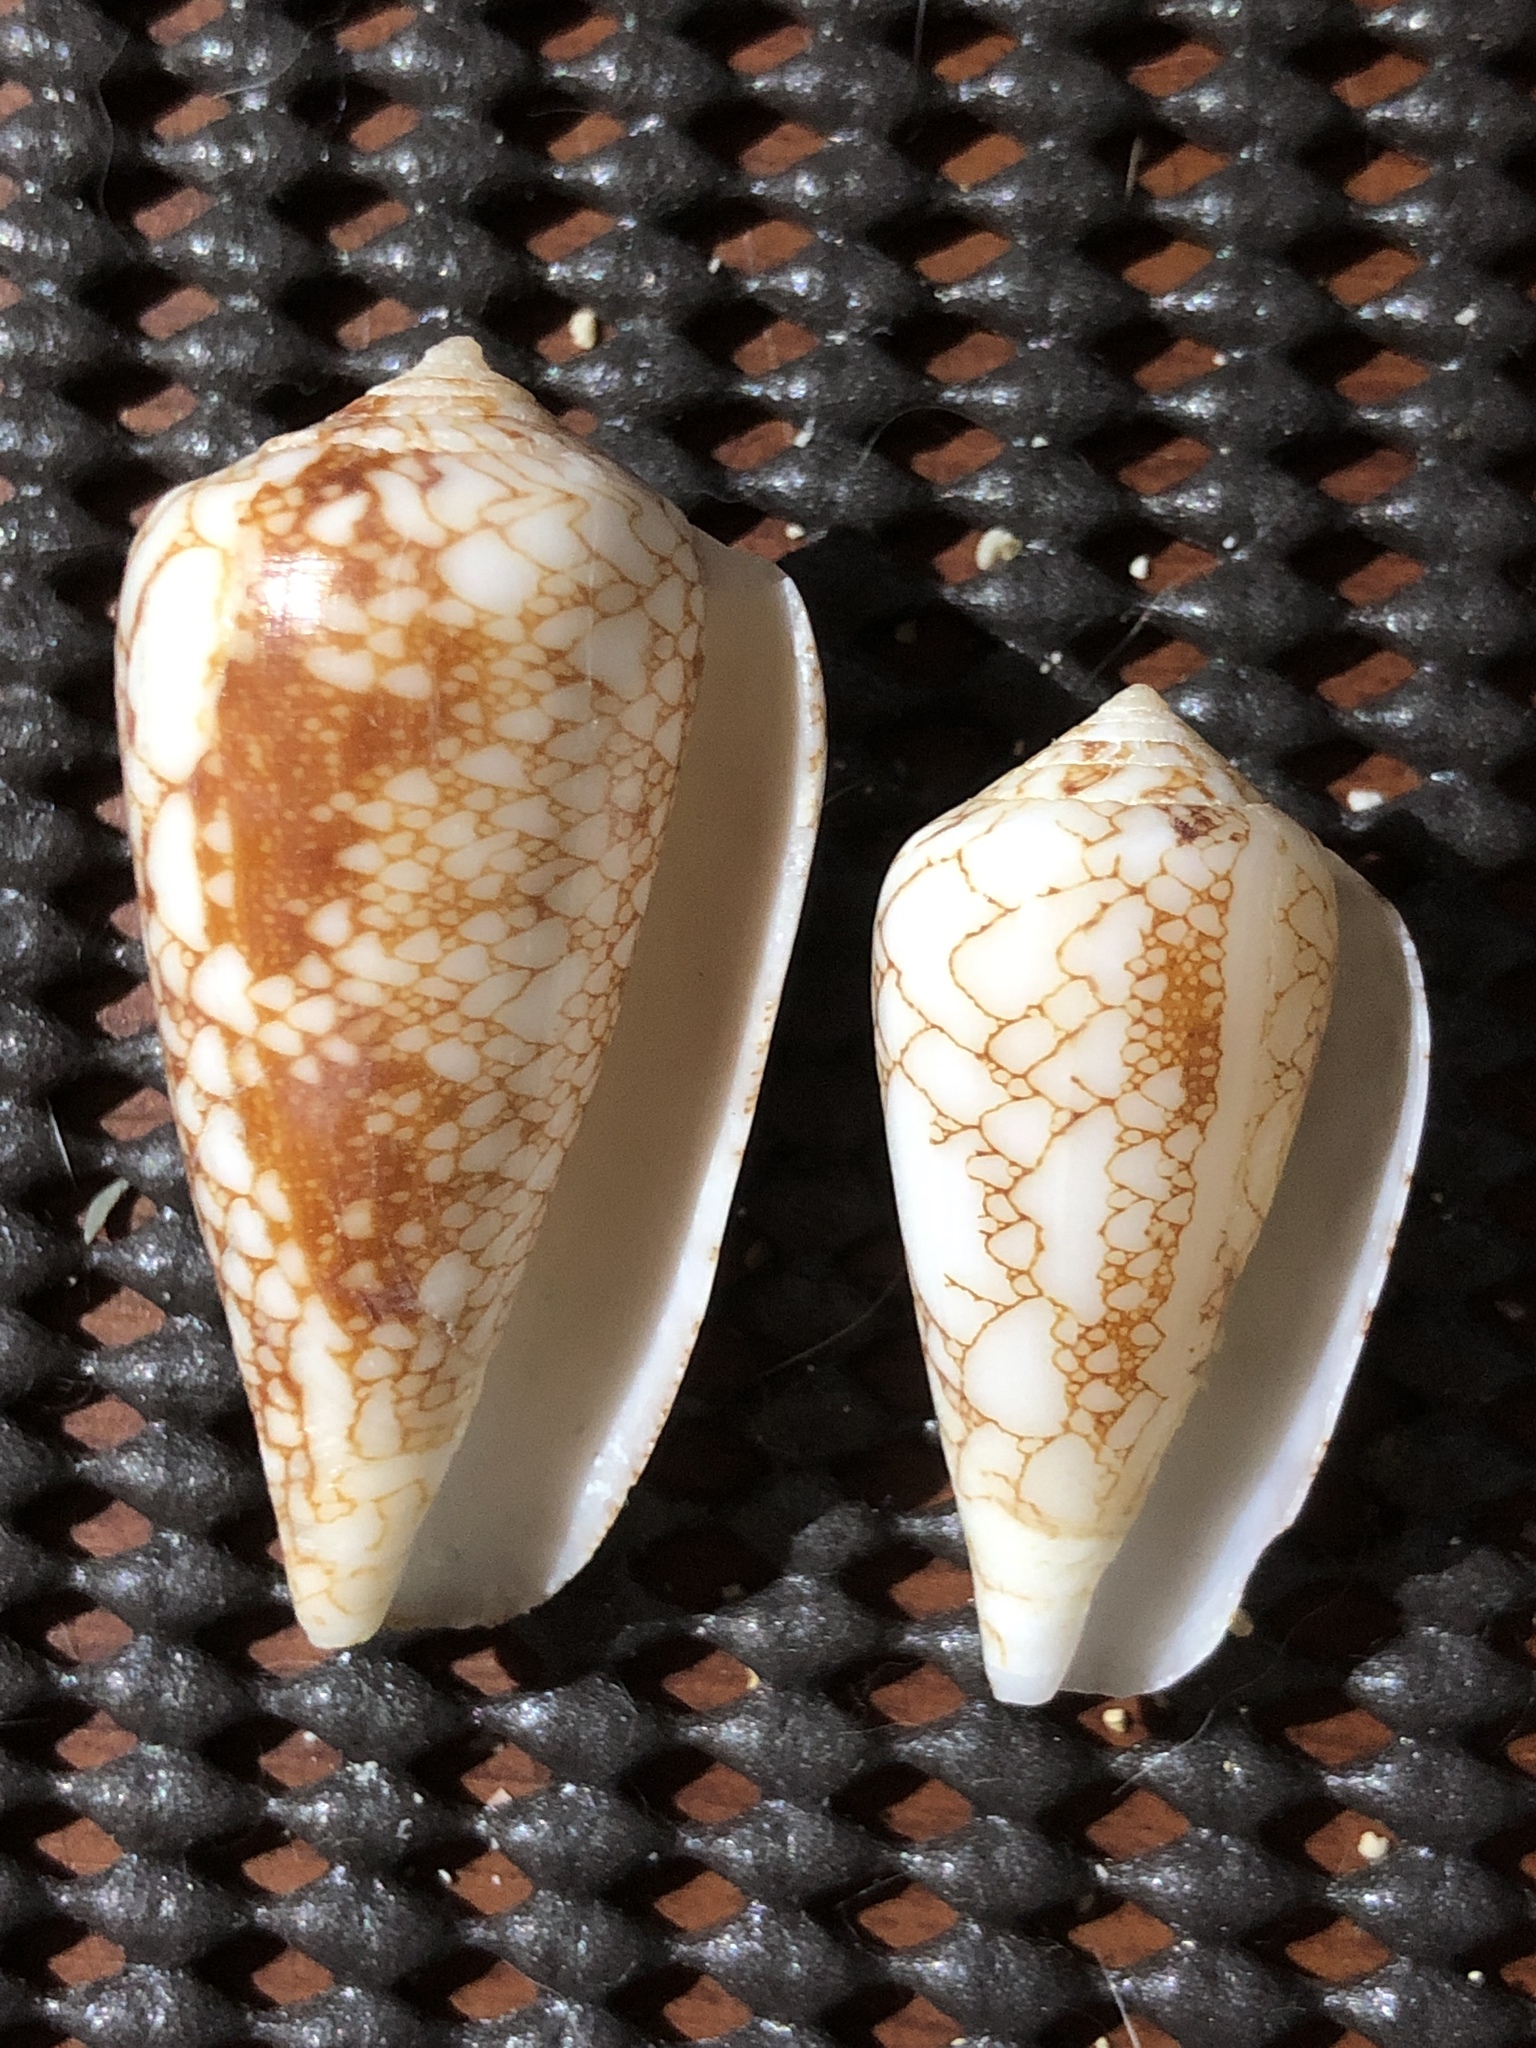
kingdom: Animalia
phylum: Mollusca
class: Gastropoda
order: Neogastropoda
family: Conidae
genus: Conus
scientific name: Conus omaria
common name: Omaria cone
